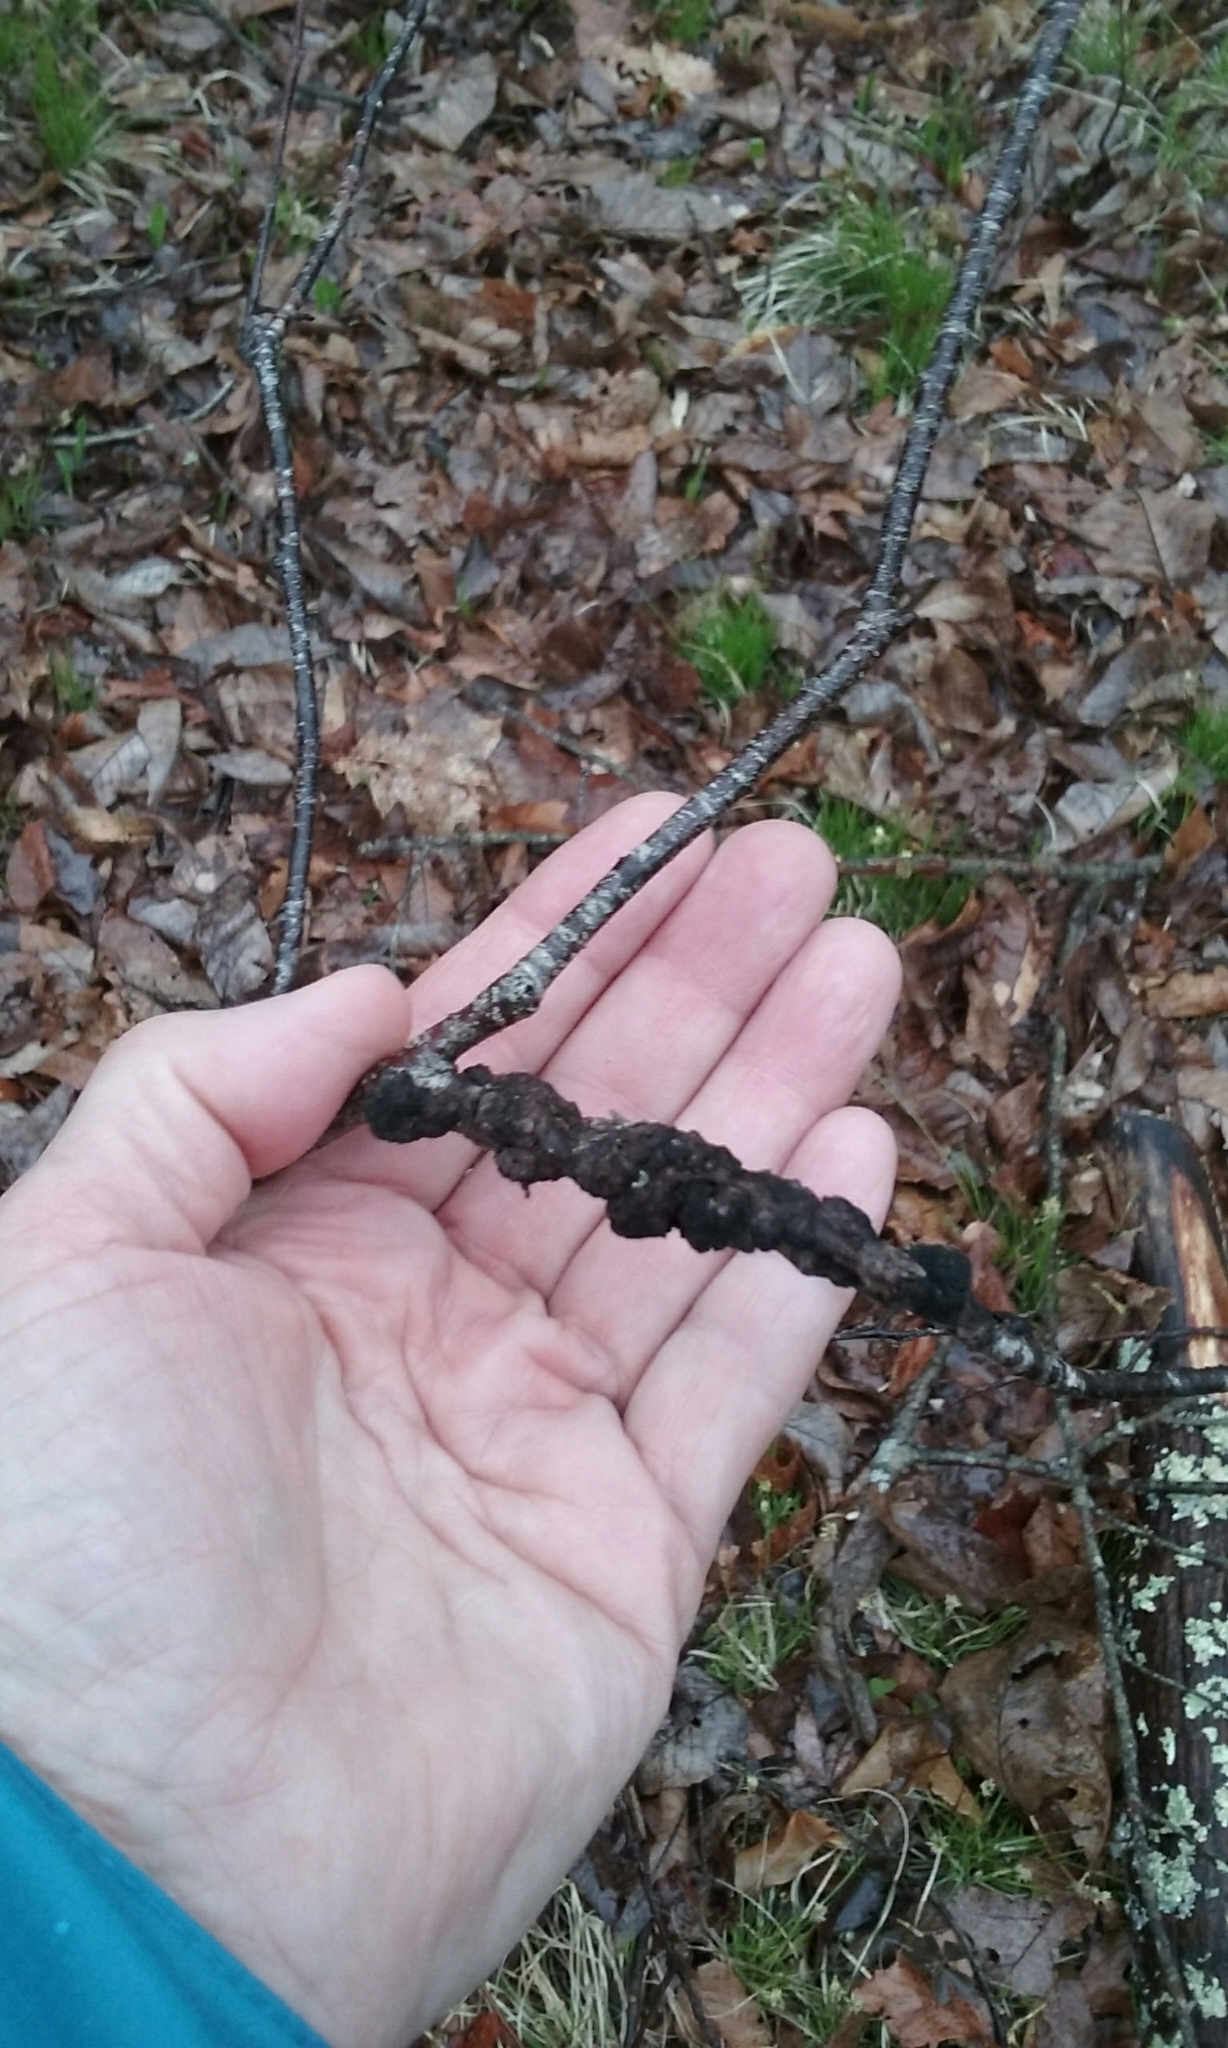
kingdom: Fungi
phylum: Ascomycota
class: Dothideomycetes
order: Venturiales
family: Venturiaceae
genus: Apiosporina
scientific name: Apiosporina morbosa
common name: Black knot
